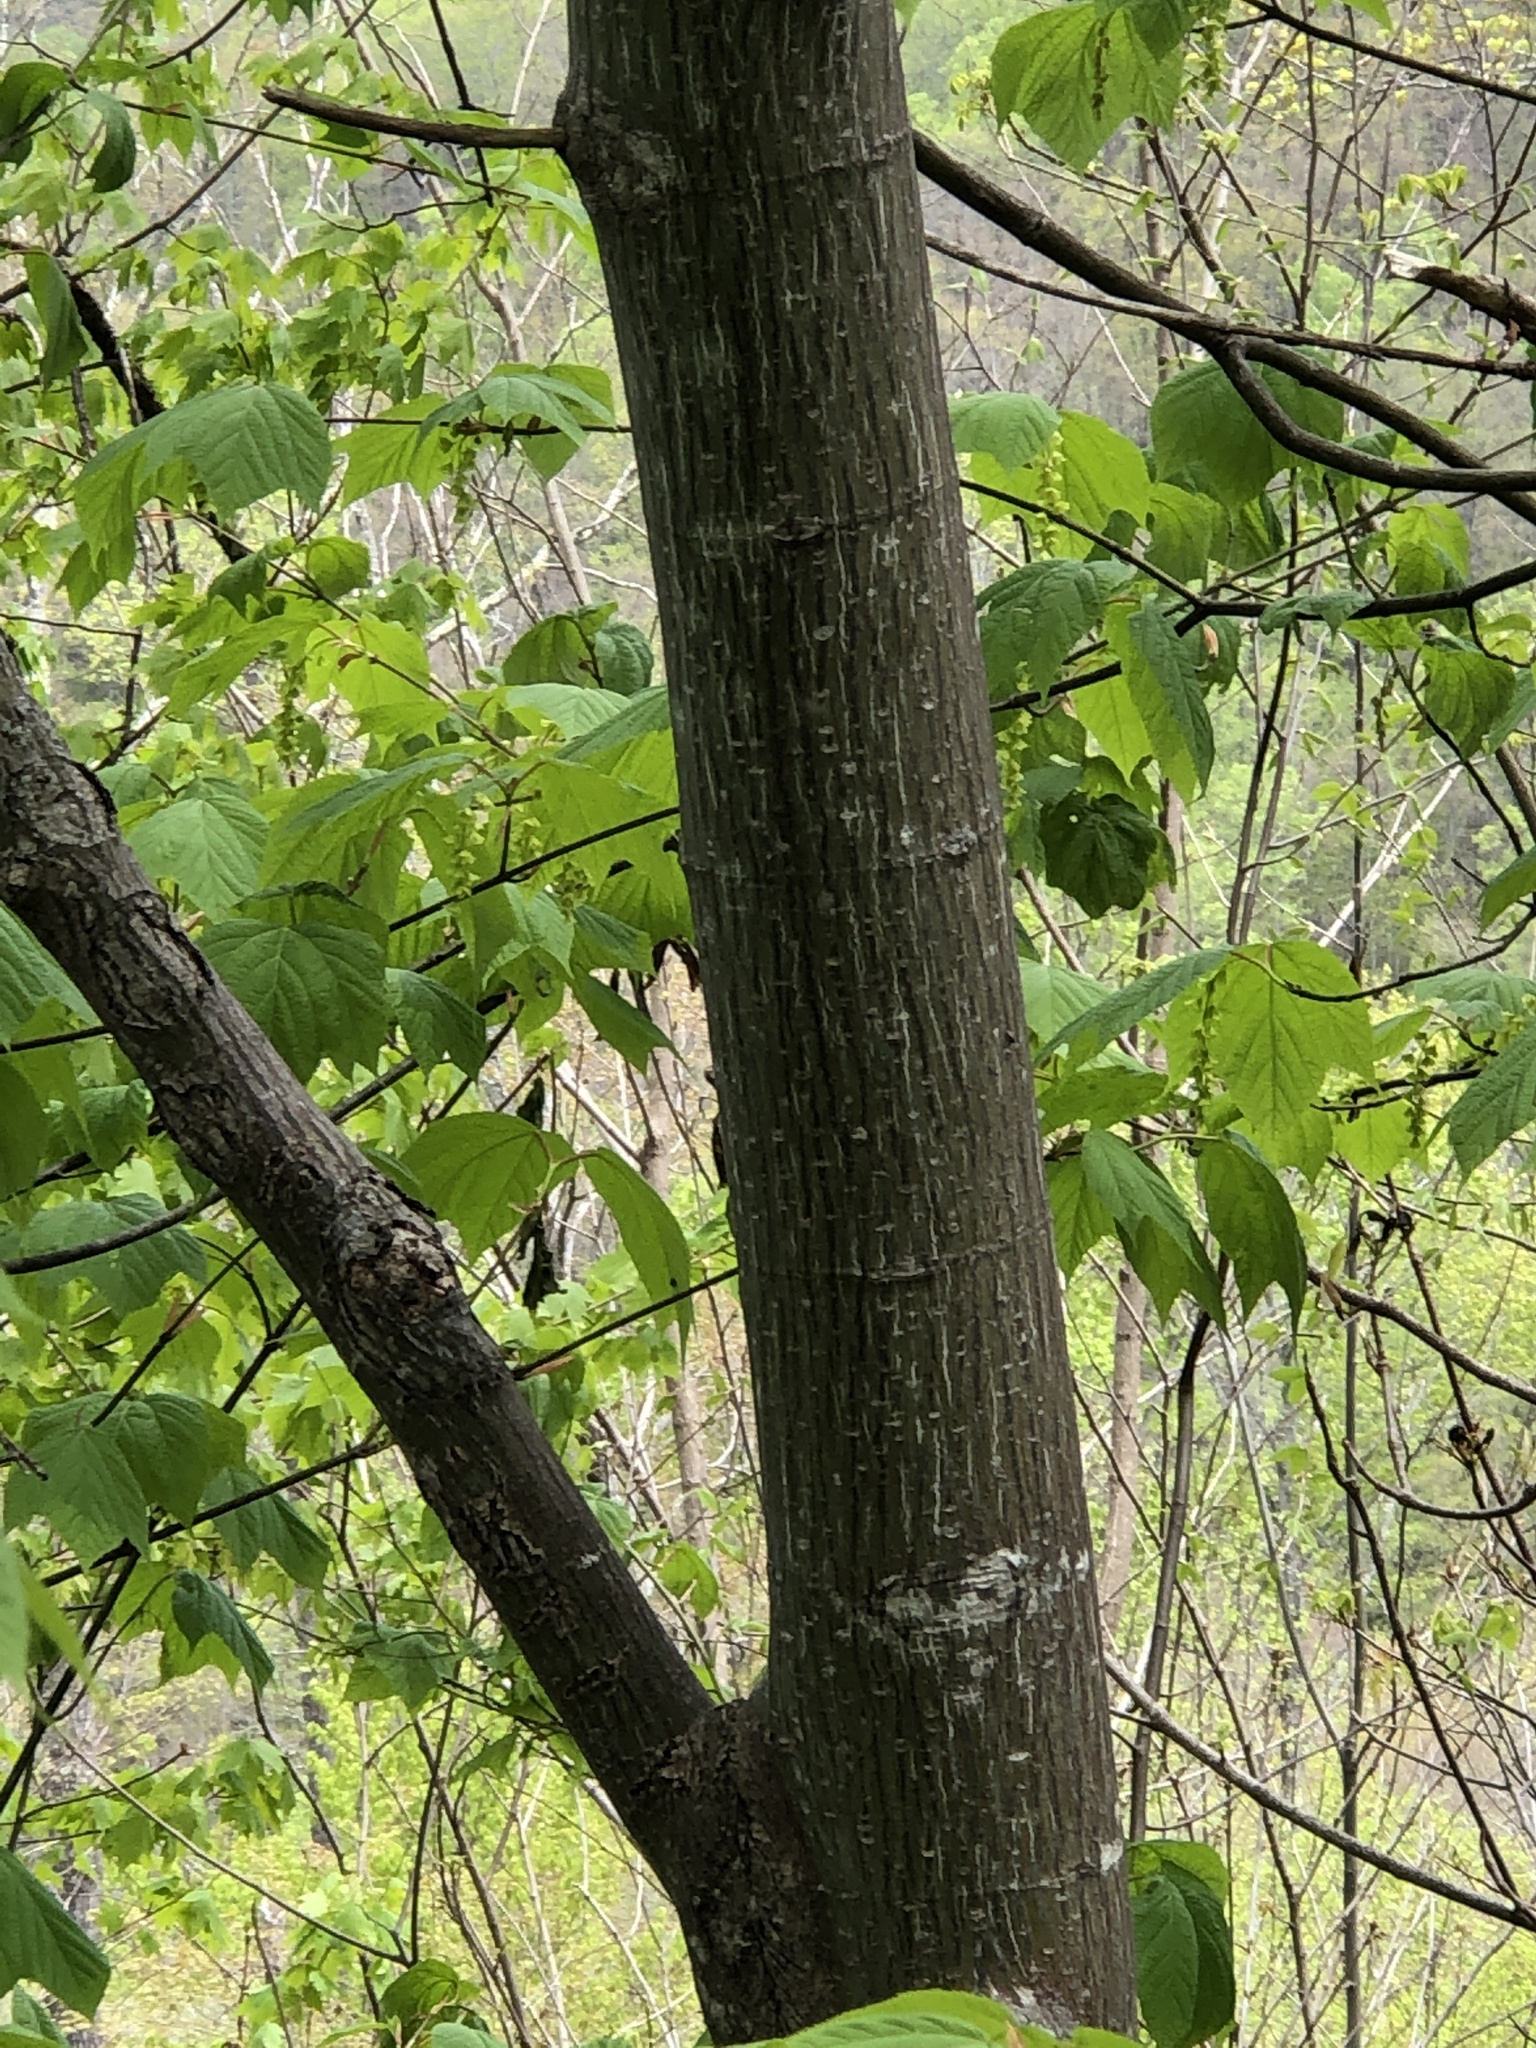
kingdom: Plantae
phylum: Tracheophyta
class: Magnoliopsida
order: Sapindales
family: Sapindaceae
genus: Acer
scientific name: Acer pensylvanicum
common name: Moosewood
